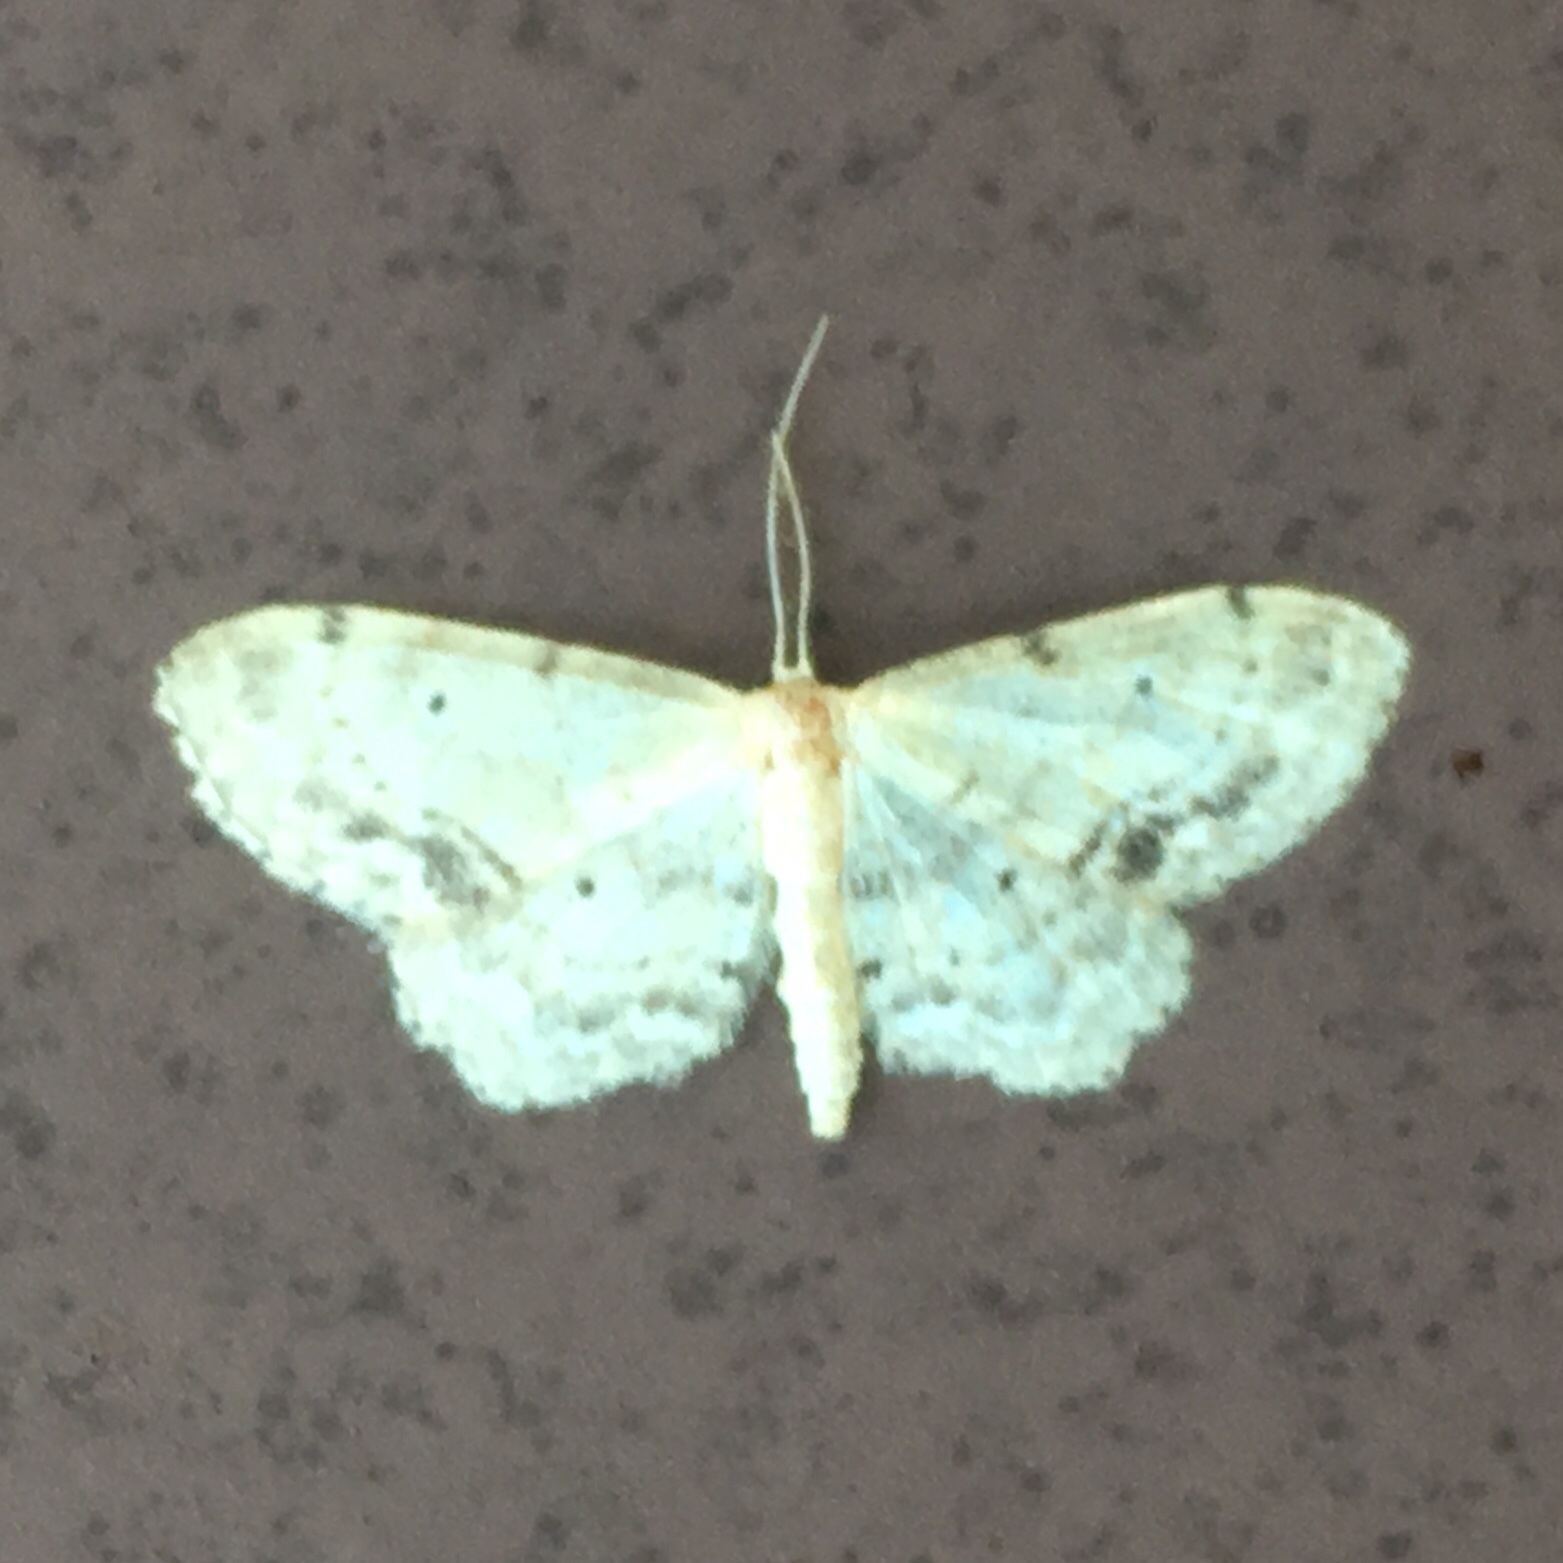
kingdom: Animalia
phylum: Arthropoda
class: Insecta
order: Lepidoptera
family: Geometridae
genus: Idaea
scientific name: Idaea dimidiata
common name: Single-dotted wave
